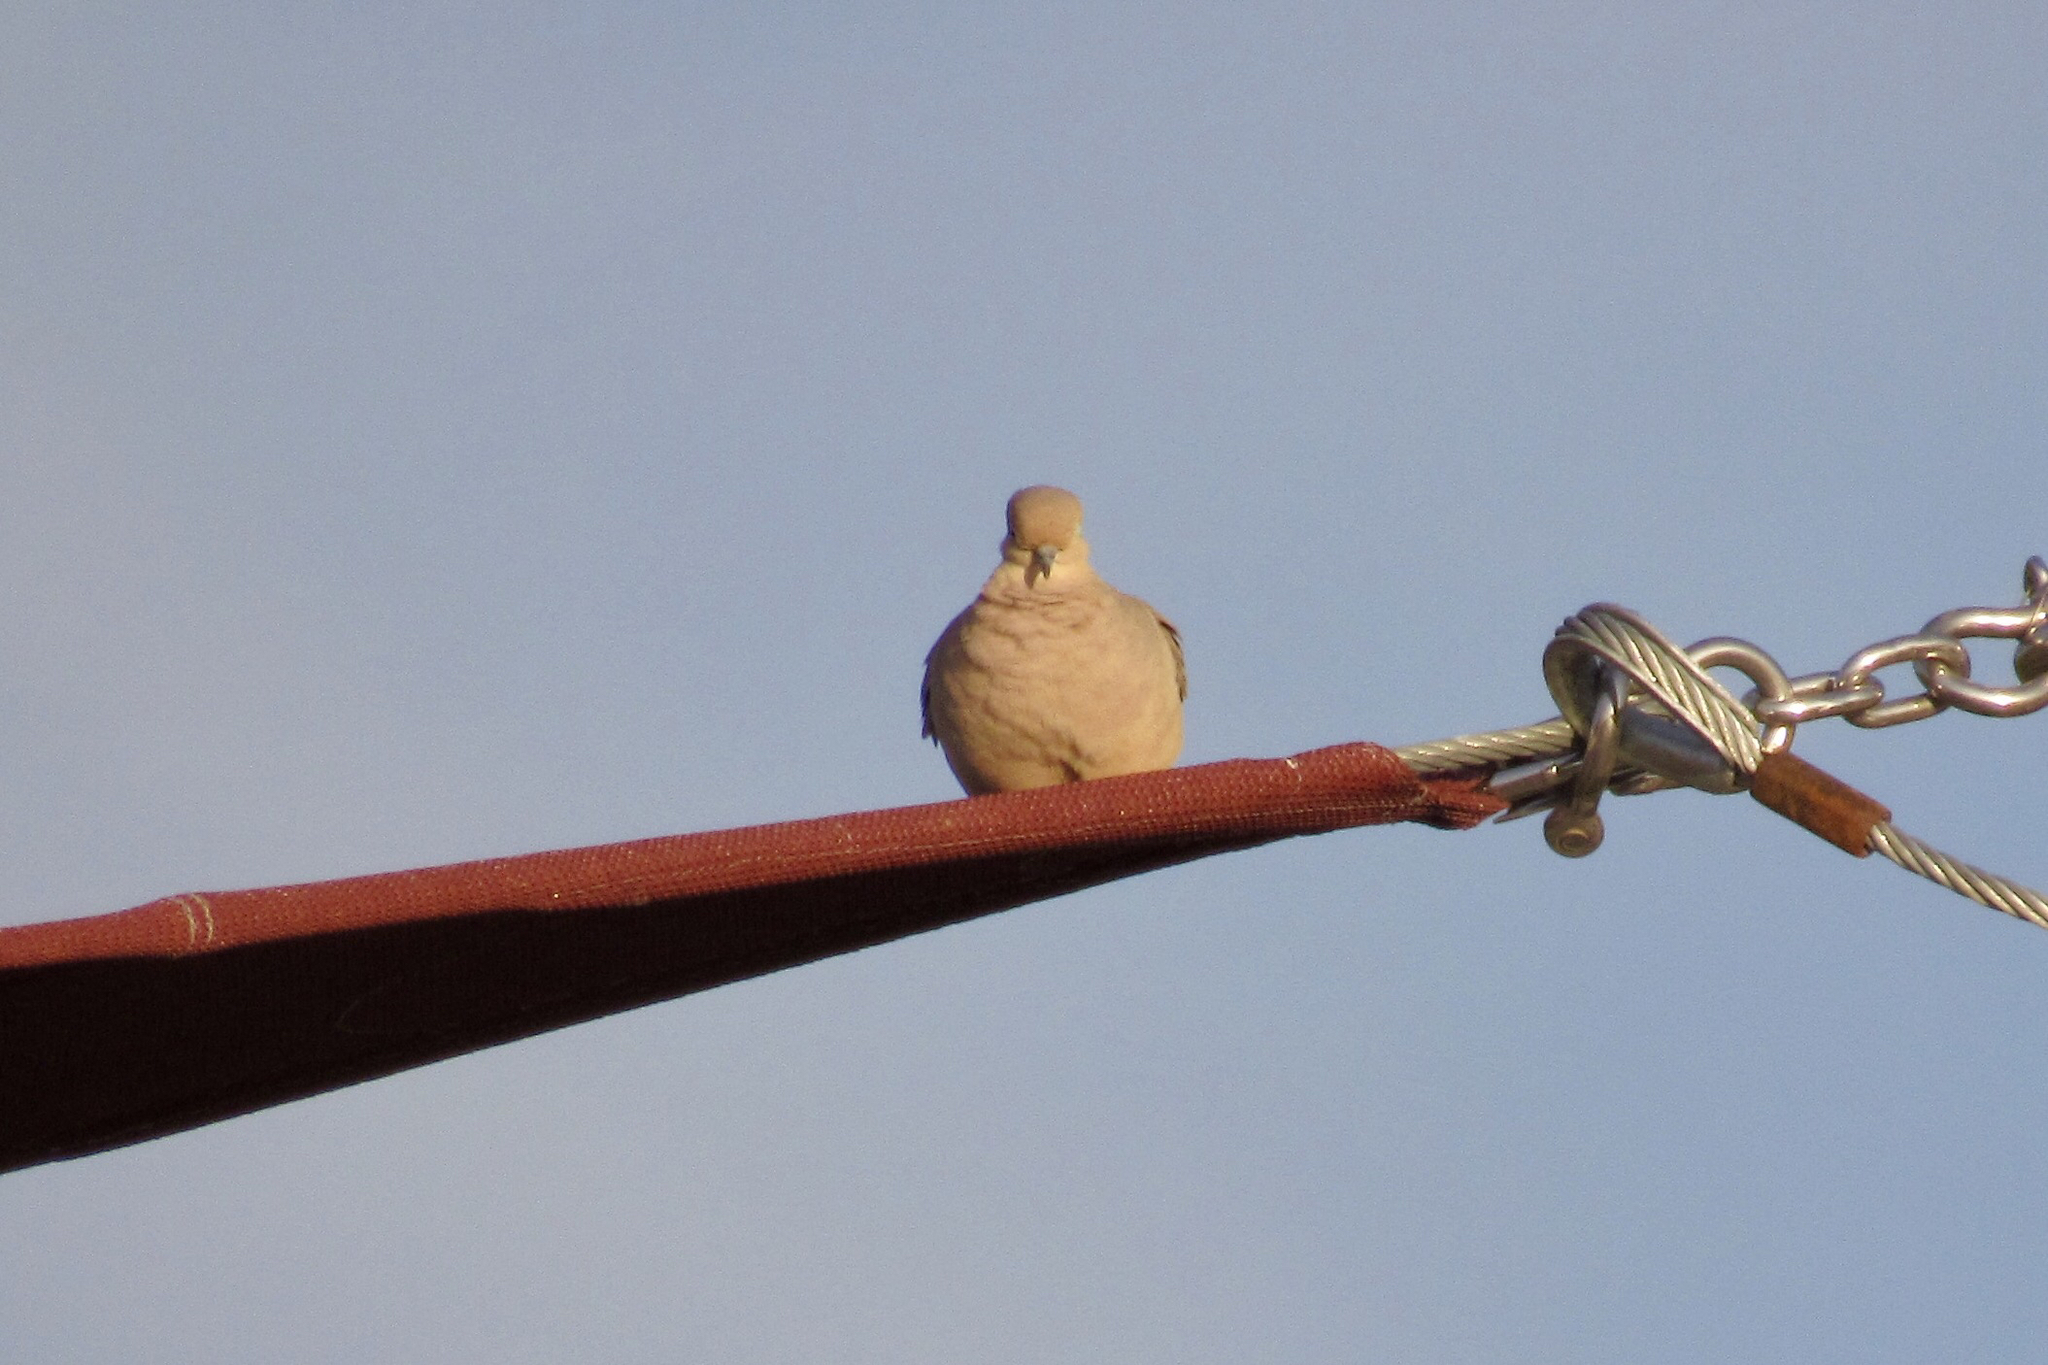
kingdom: Animalia
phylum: Chordata
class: Aves
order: Columbiformes
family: Columbidae
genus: Streptopelia
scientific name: Streptopelia decaocto
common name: Eurasian collared dove
